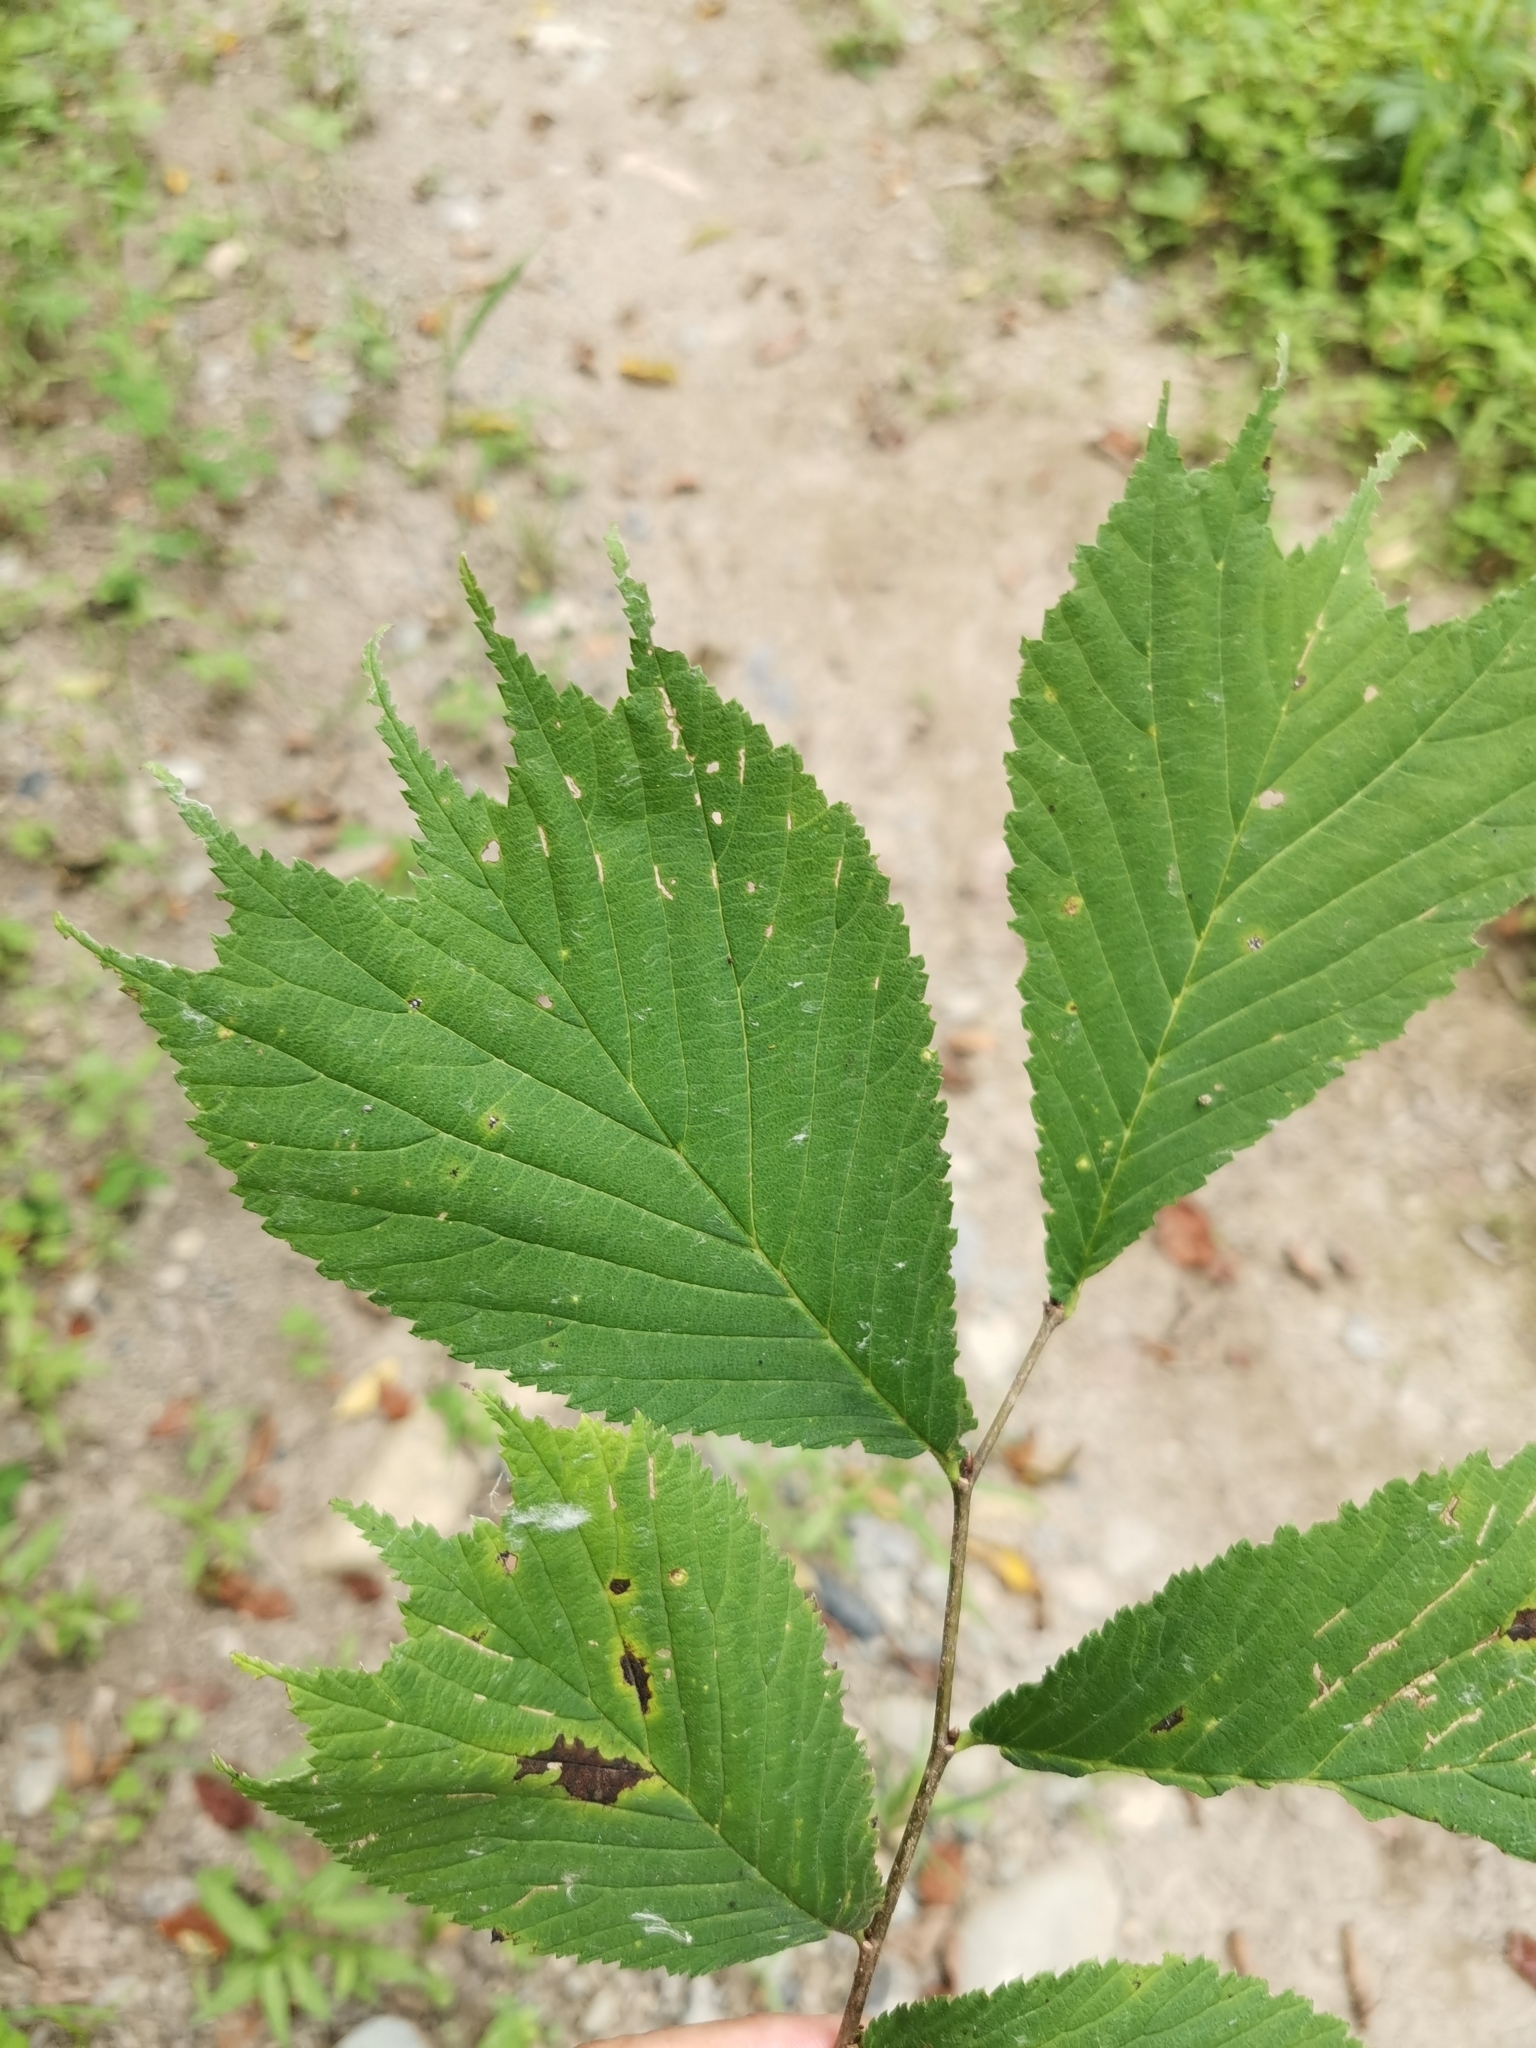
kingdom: Plantae
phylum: Tracheophyta
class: Magnoliopsida
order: Rosales
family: Ulmaceae
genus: Ulmus
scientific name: Ulmus laciniata
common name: Japanese elm
